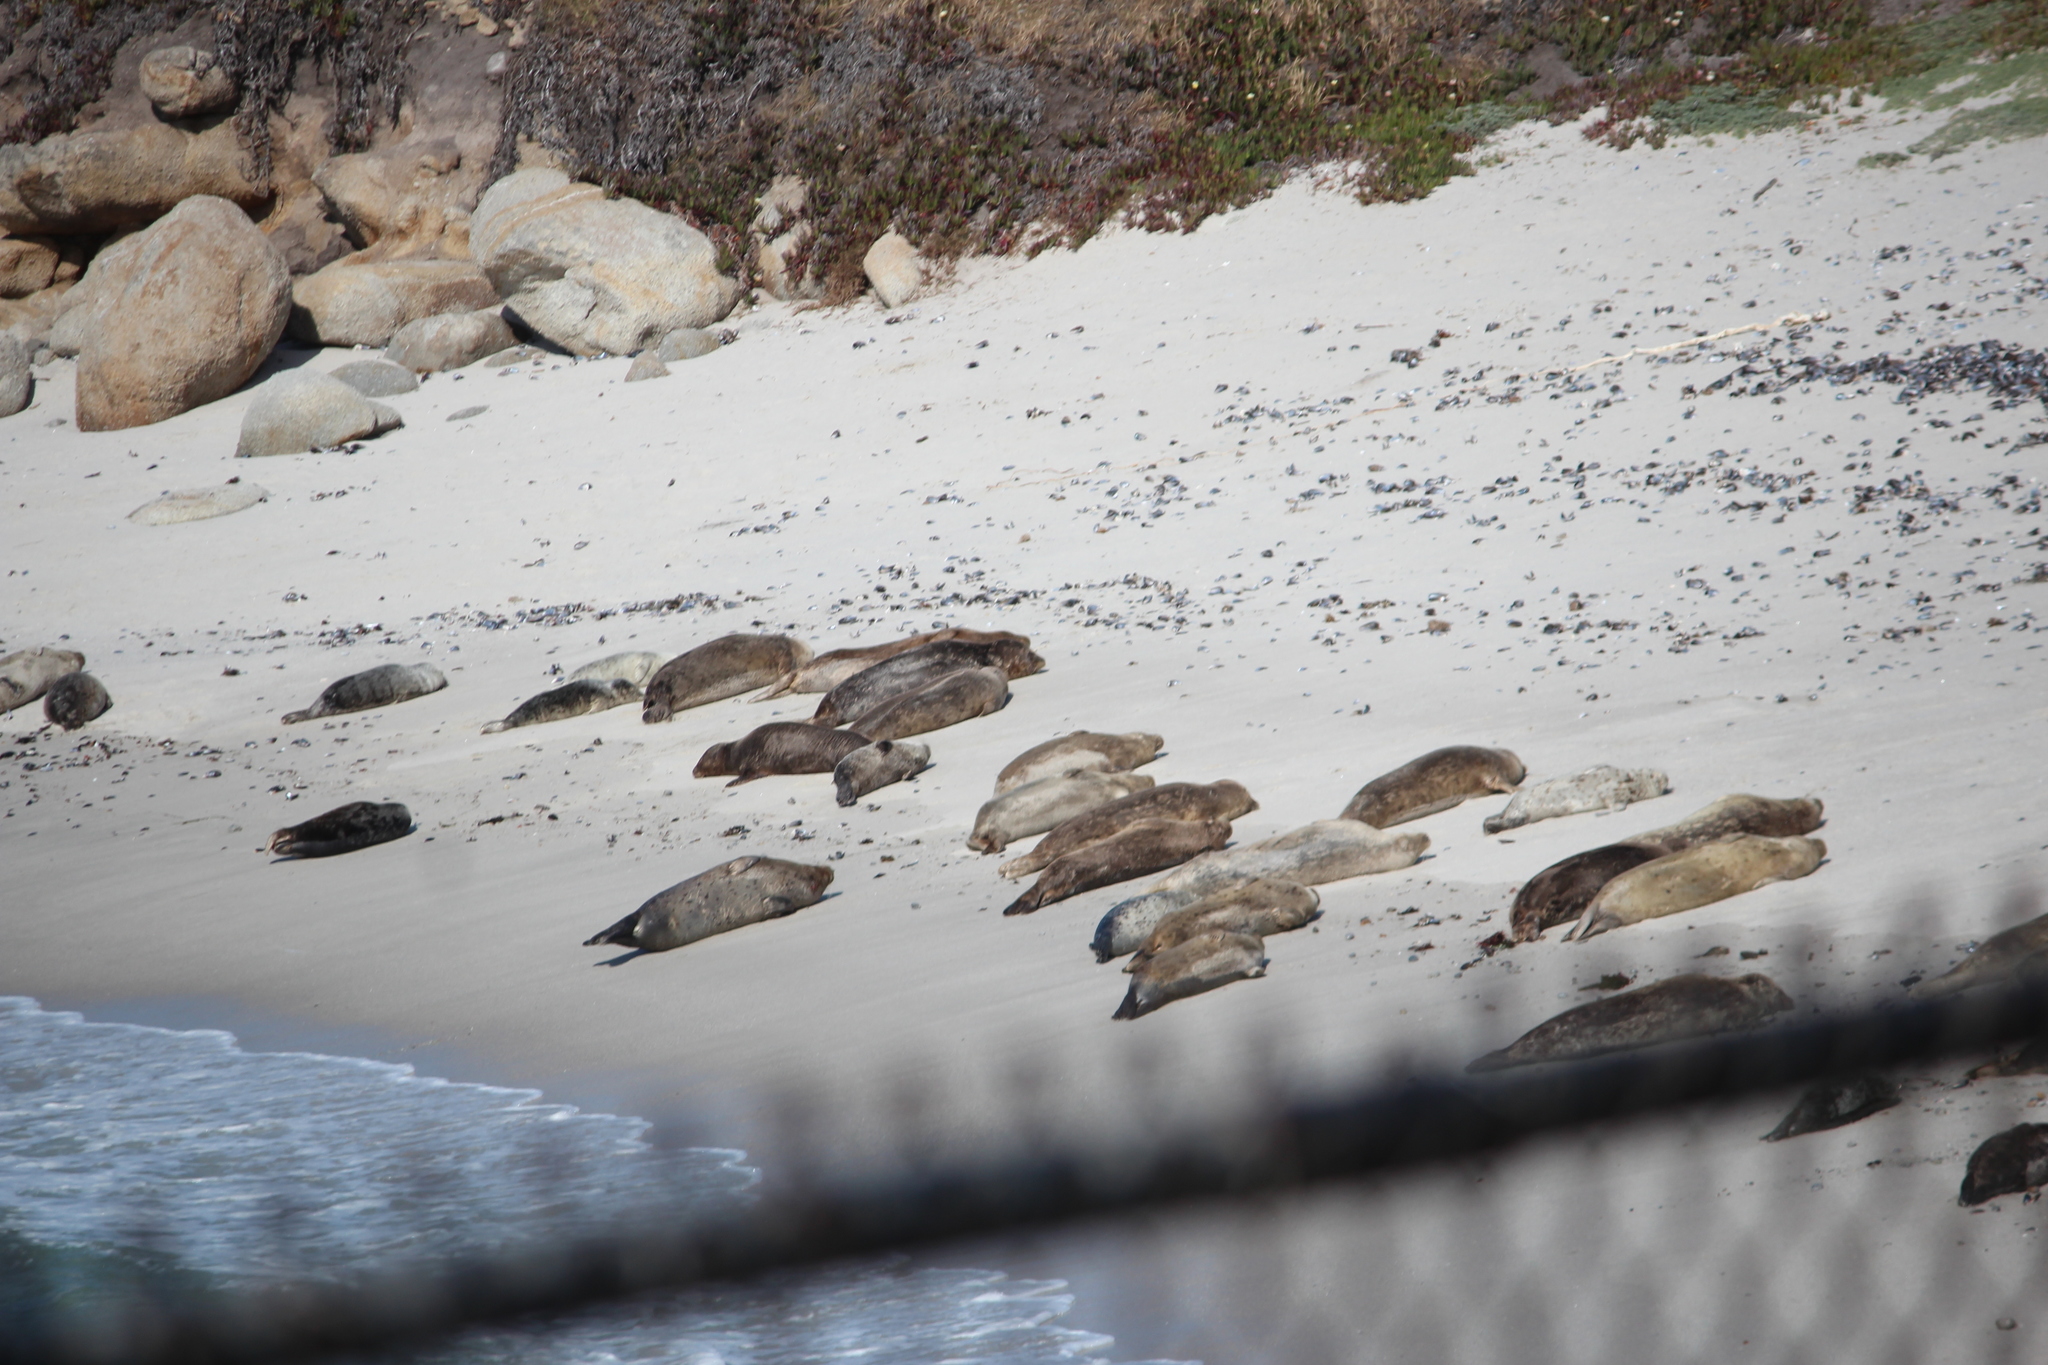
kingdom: Animalia
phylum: Chordata
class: Mammalia
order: Carnivora
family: Phocidae
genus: Phoca
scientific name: Phoca vitulina
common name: Harbor seal
